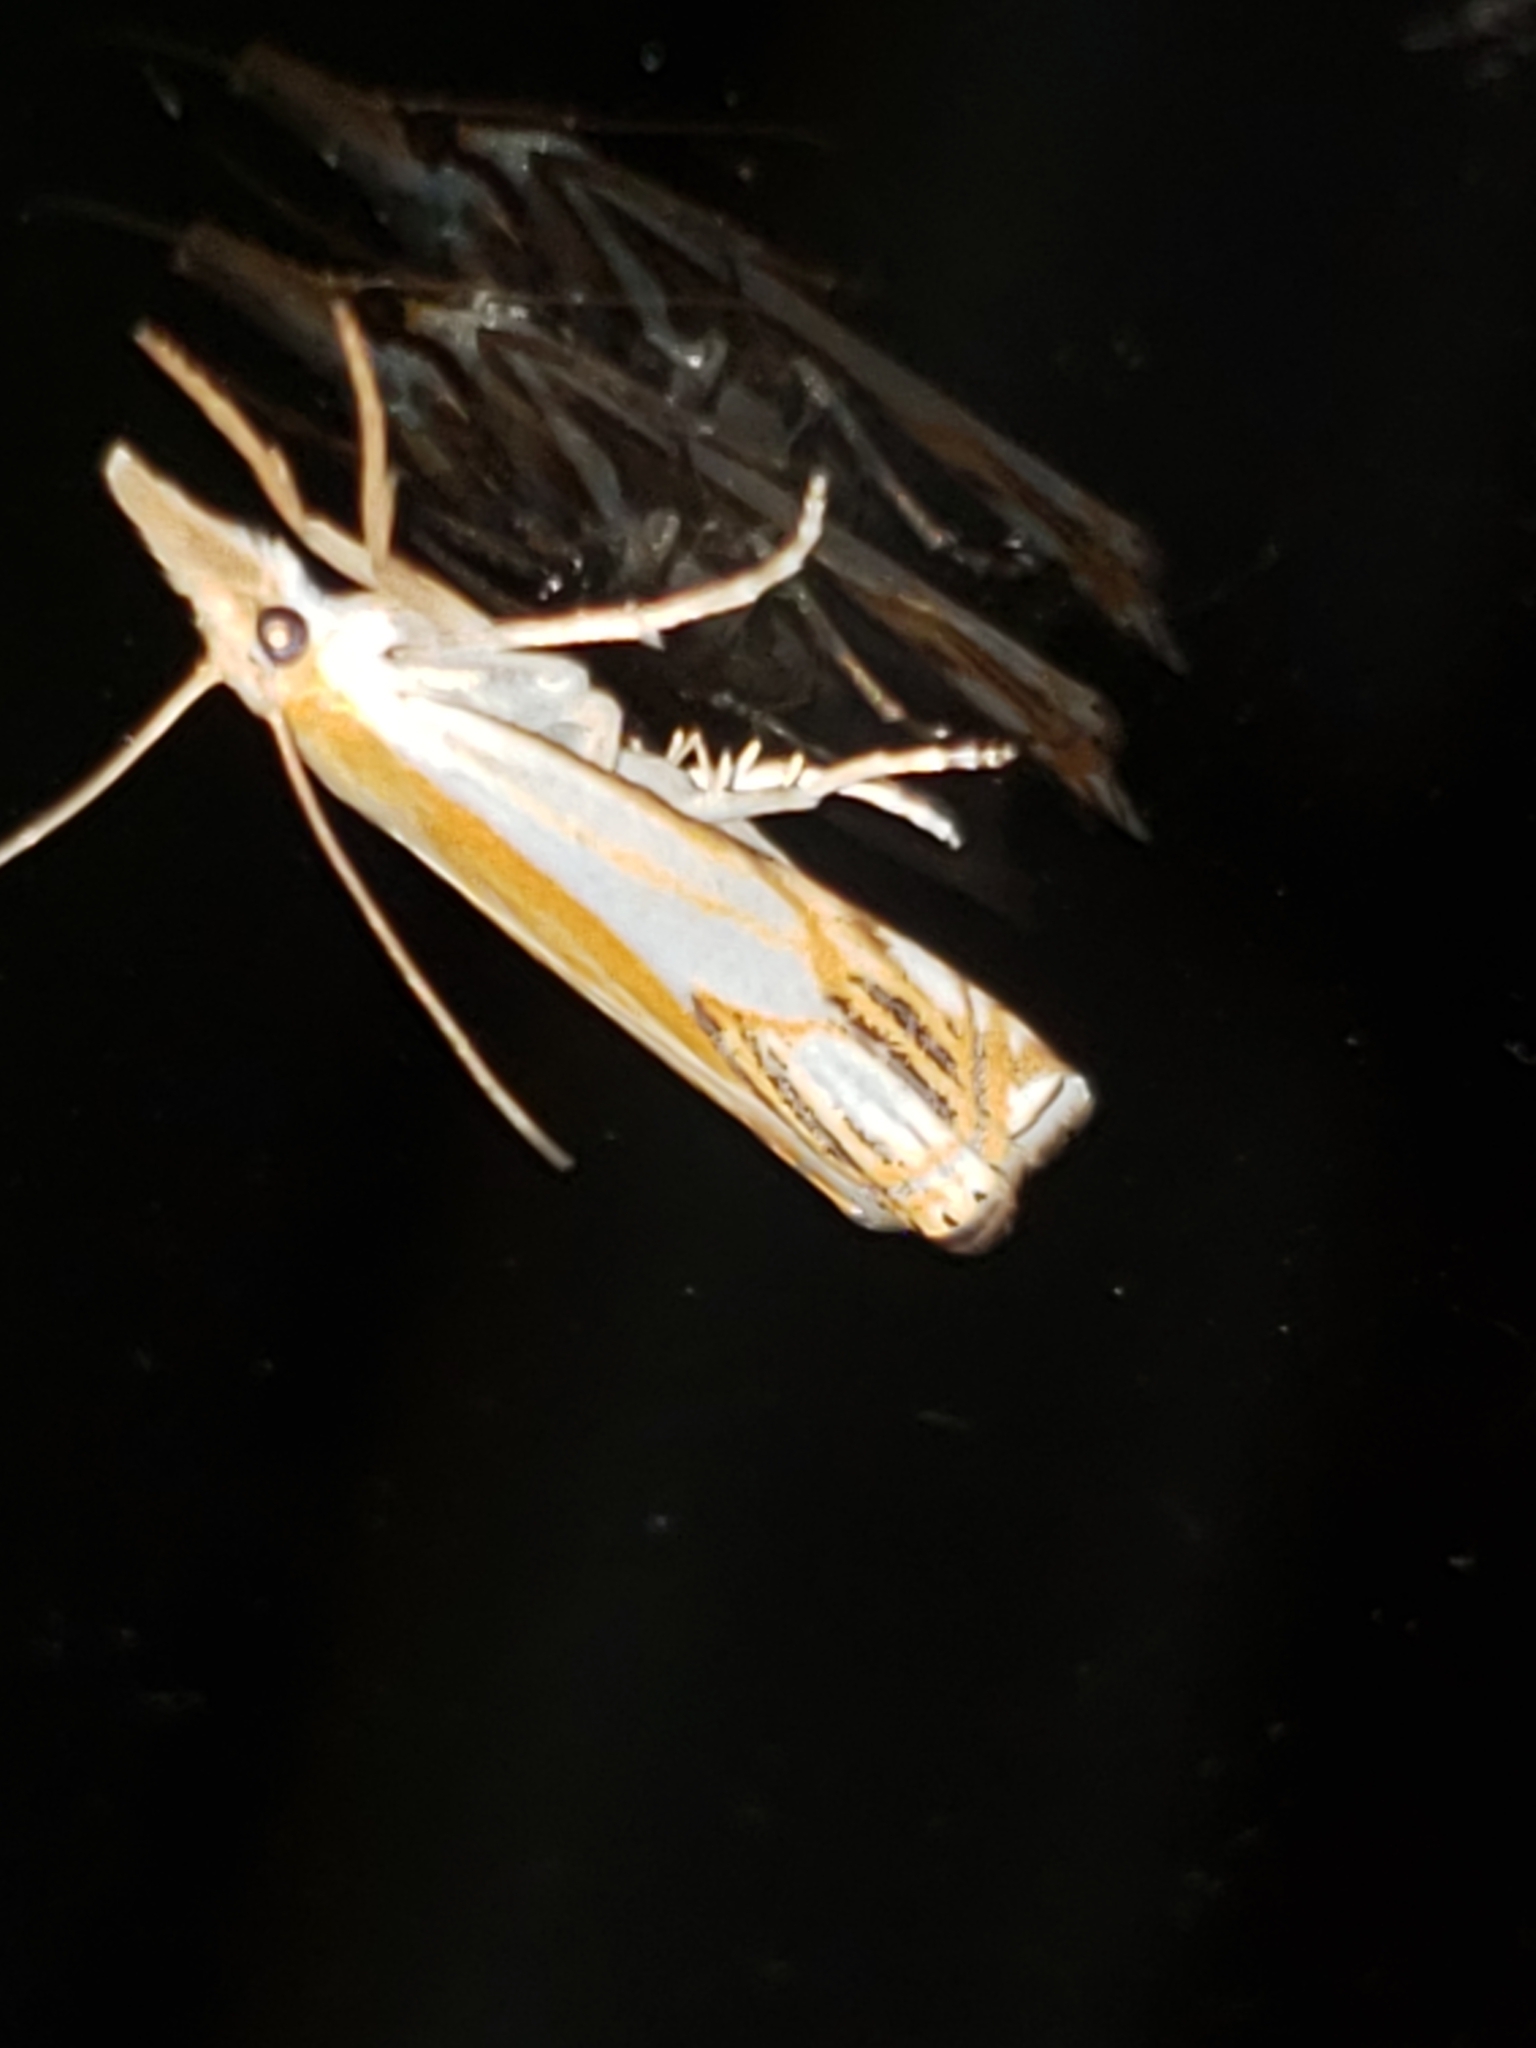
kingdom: Animalia
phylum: Arthropoda
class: Insecta
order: Lepidoptera
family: Crambidae
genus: Crambus
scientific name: Crambus agitatellus
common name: Double-banded grass-veneer
